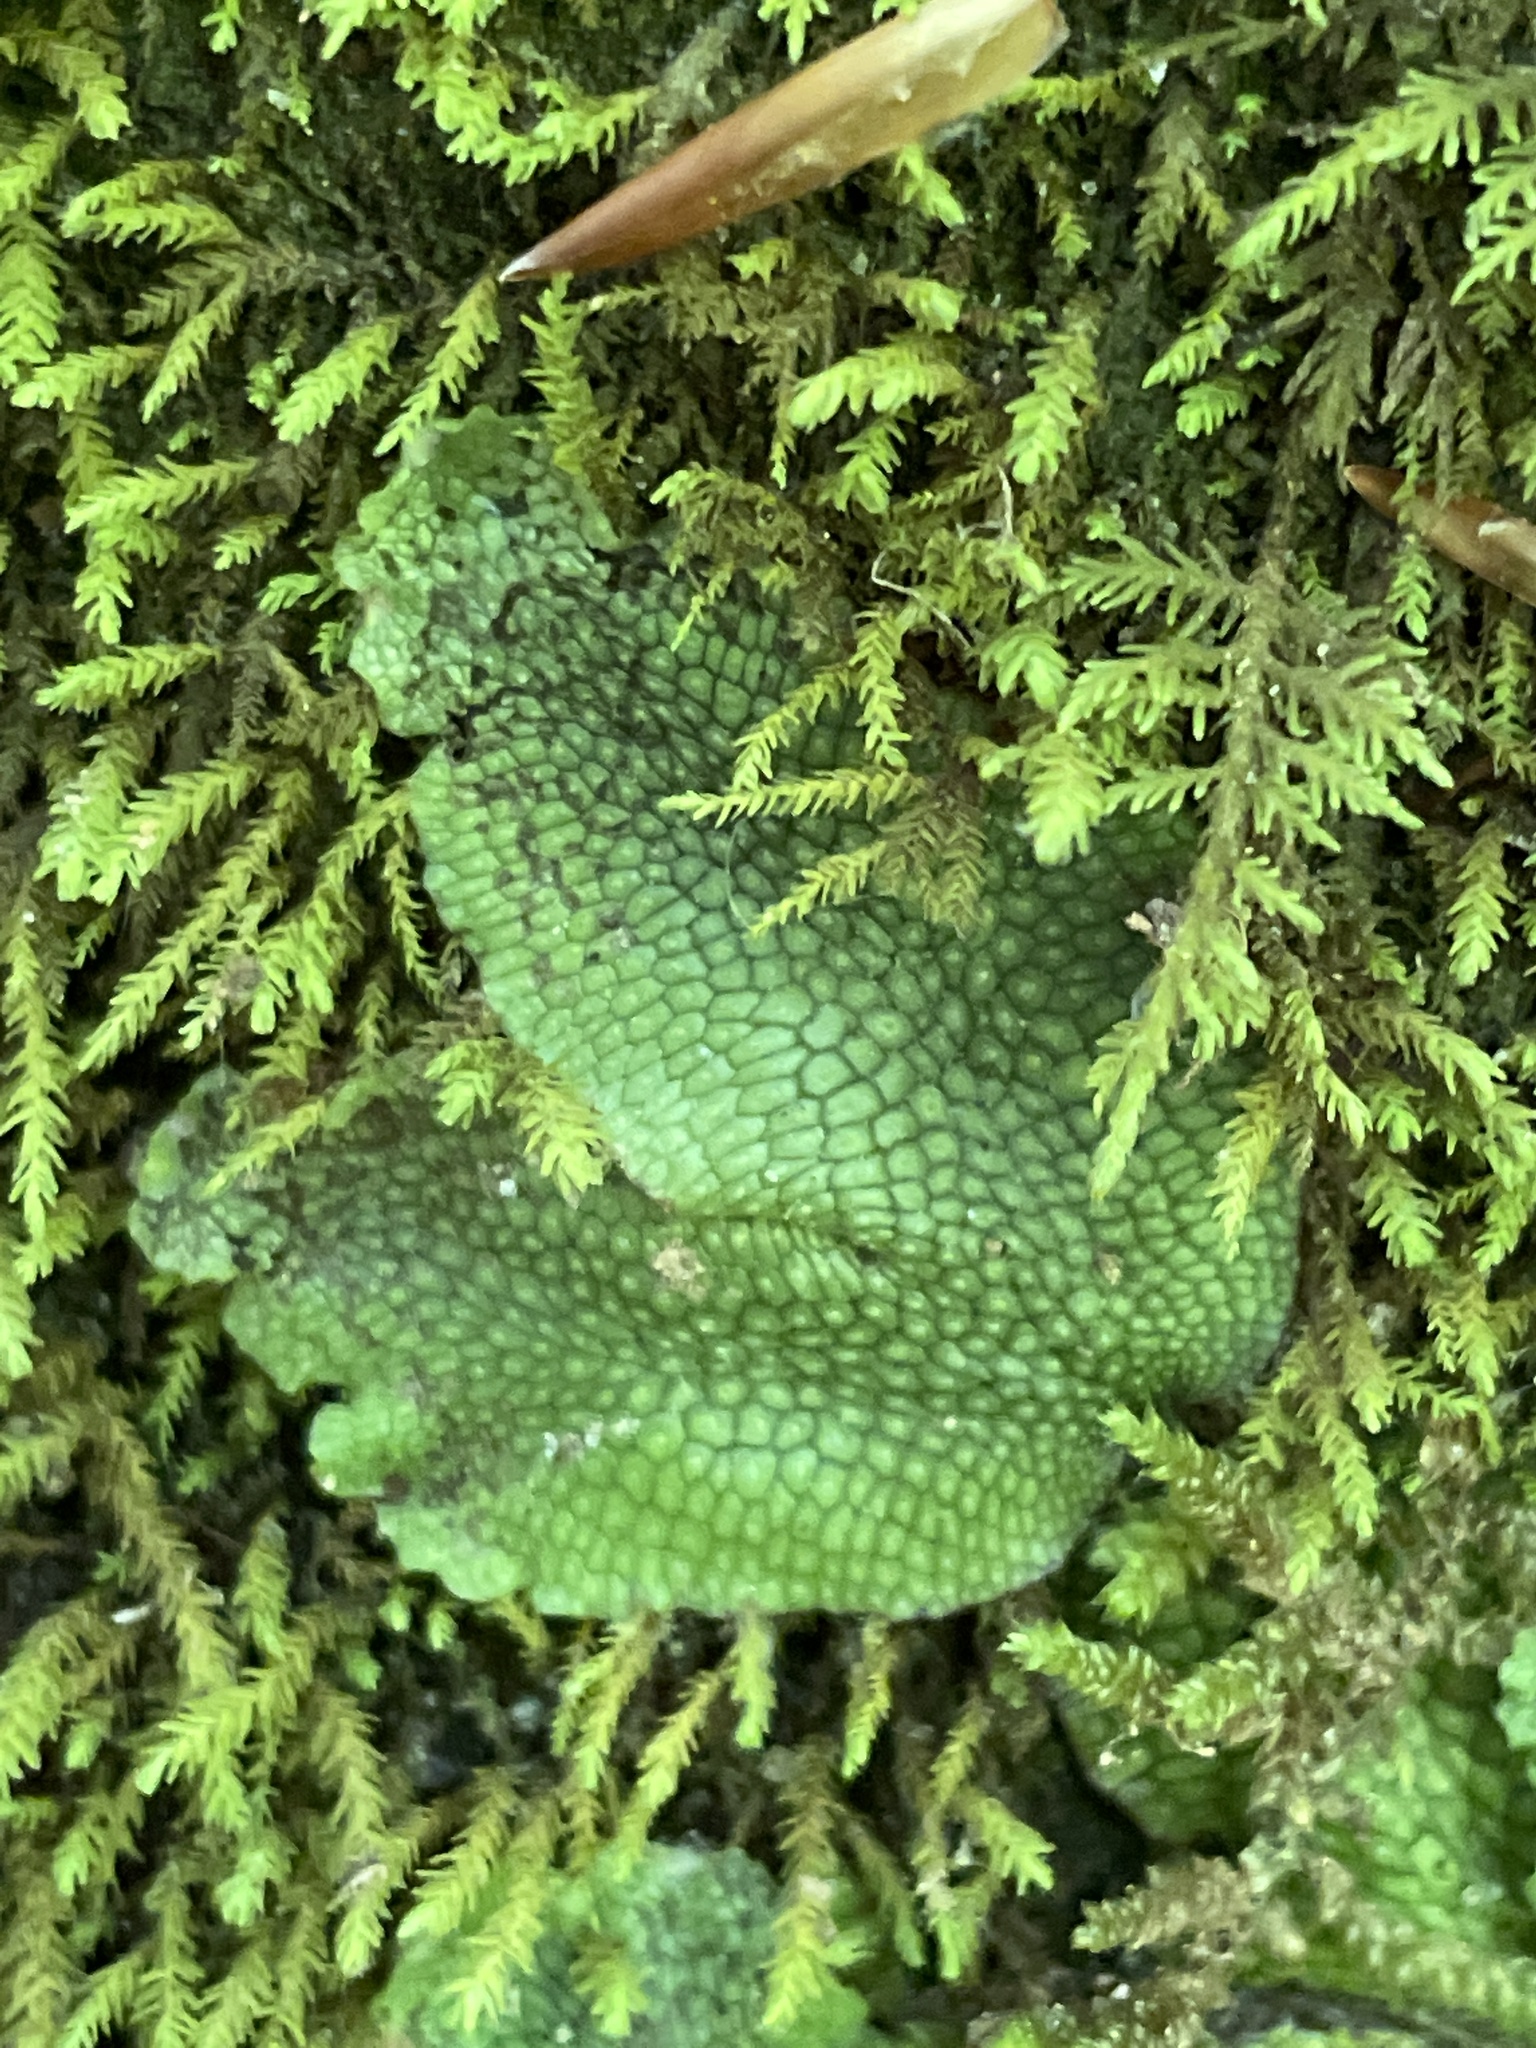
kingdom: Plantae
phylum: Marchantiophyta
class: Marchantiopsida
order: Marchantiales
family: Conocephalaceae
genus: Conocephalum
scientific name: Conocephalum salebrosum
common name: Cat-tongue liverwort
